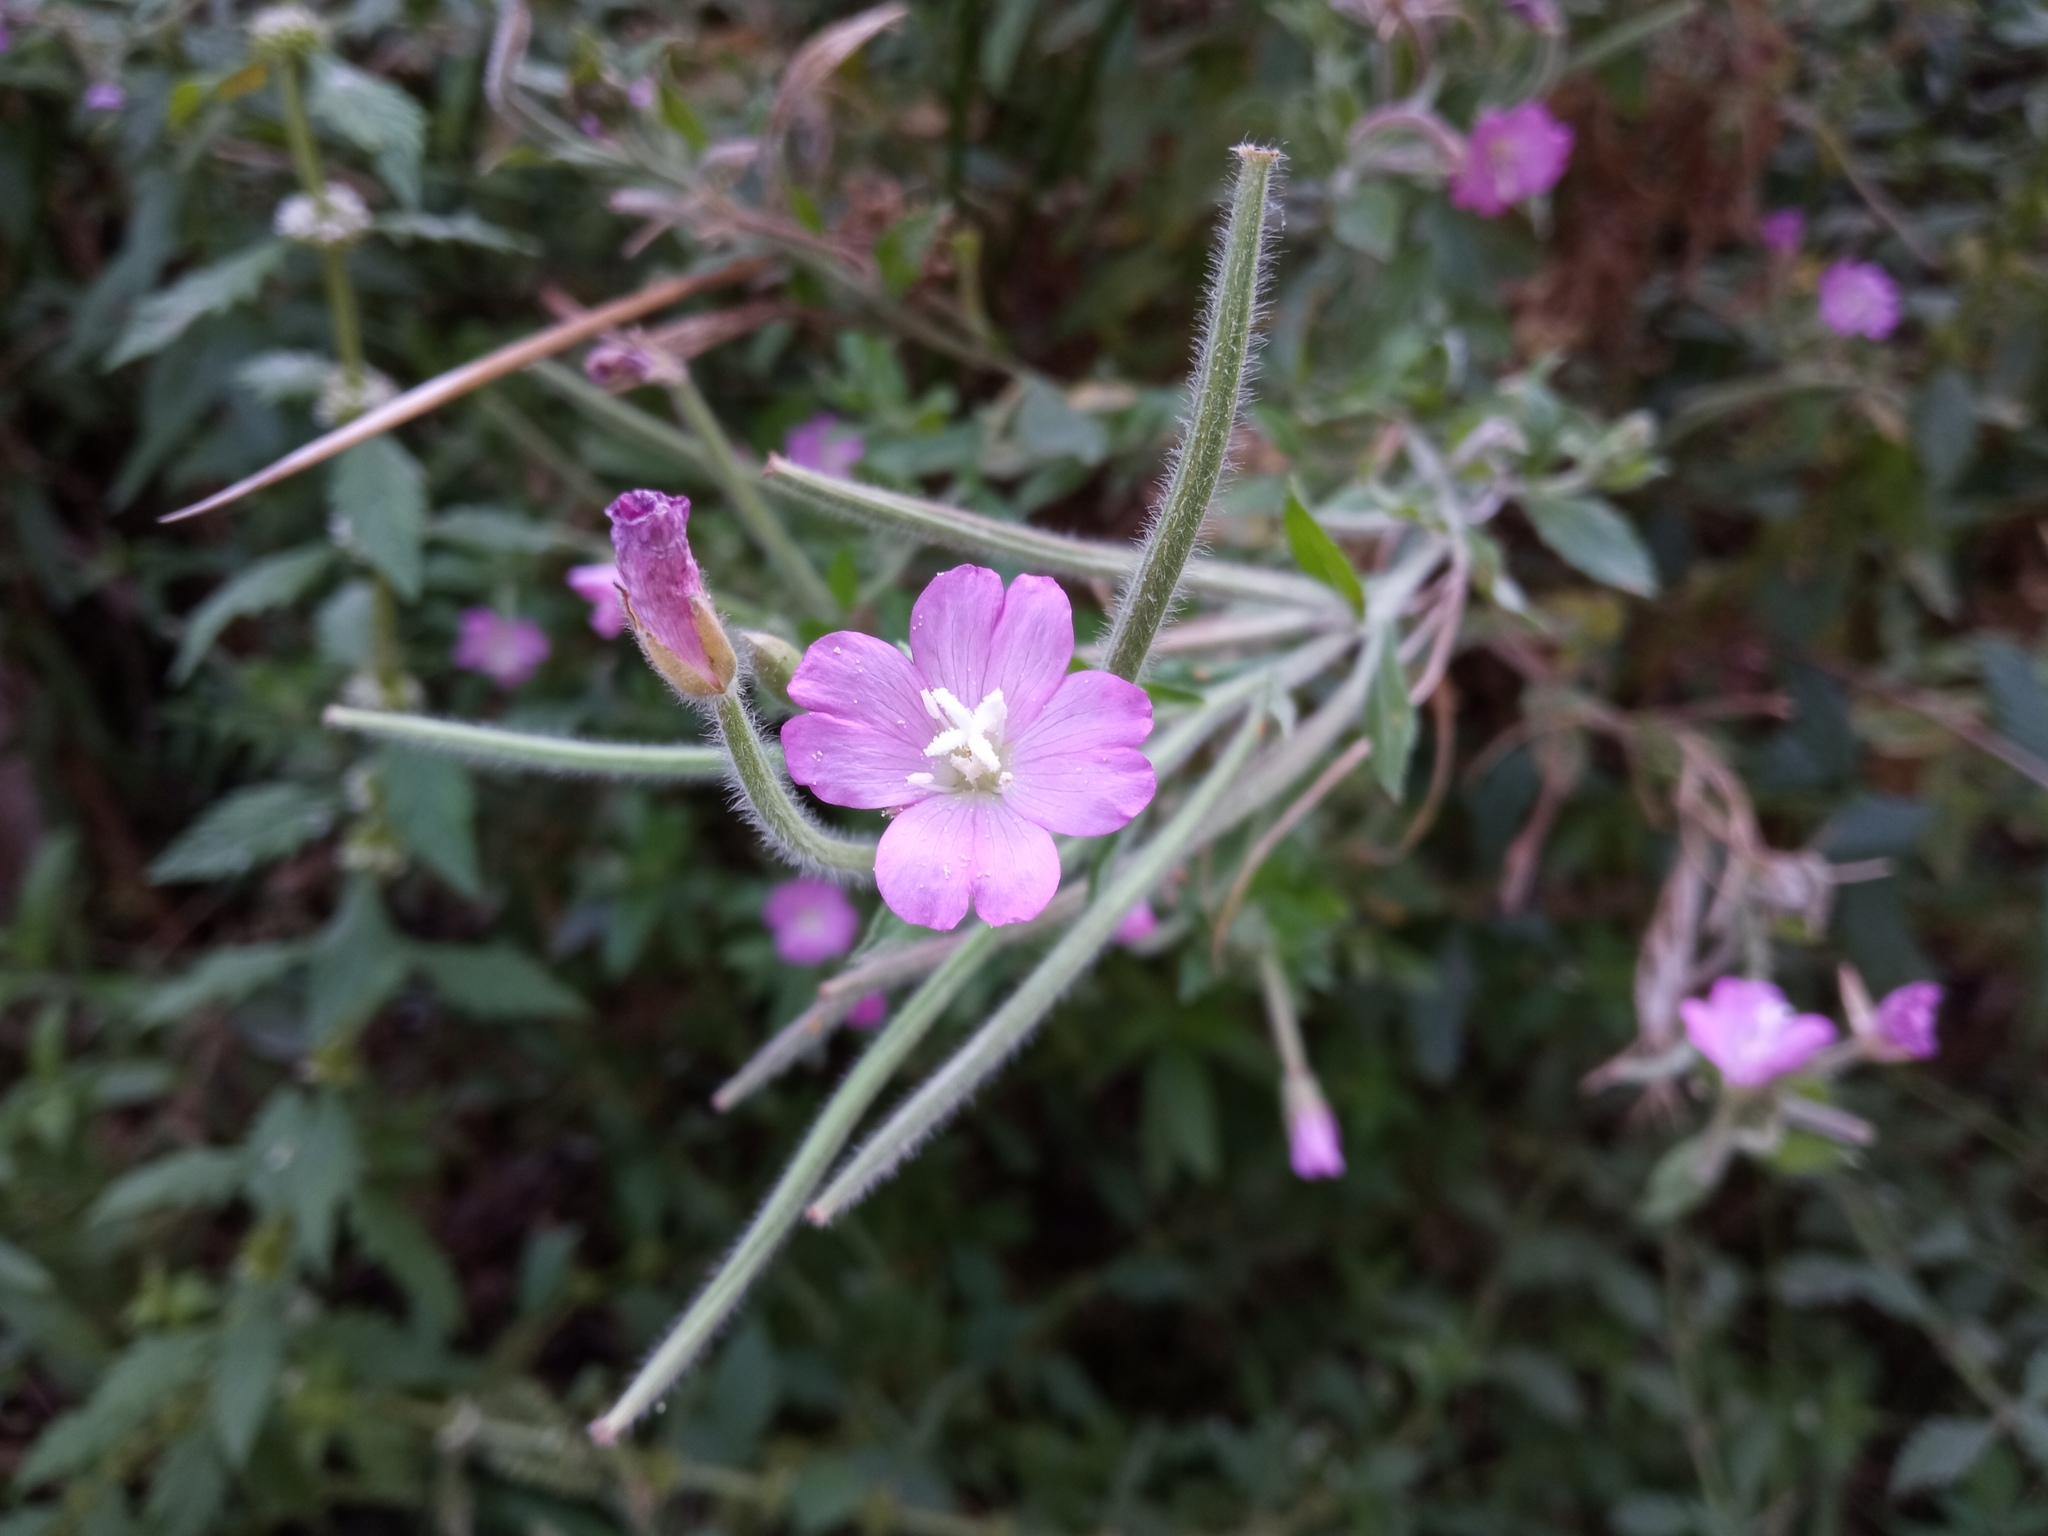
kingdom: Plantae
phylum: Tracheophyta
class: Magnoliopsida
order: Myrtales
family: Onagraceae
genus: Epilobium
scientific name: Epilobium hirsutum
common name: Great willowherb
